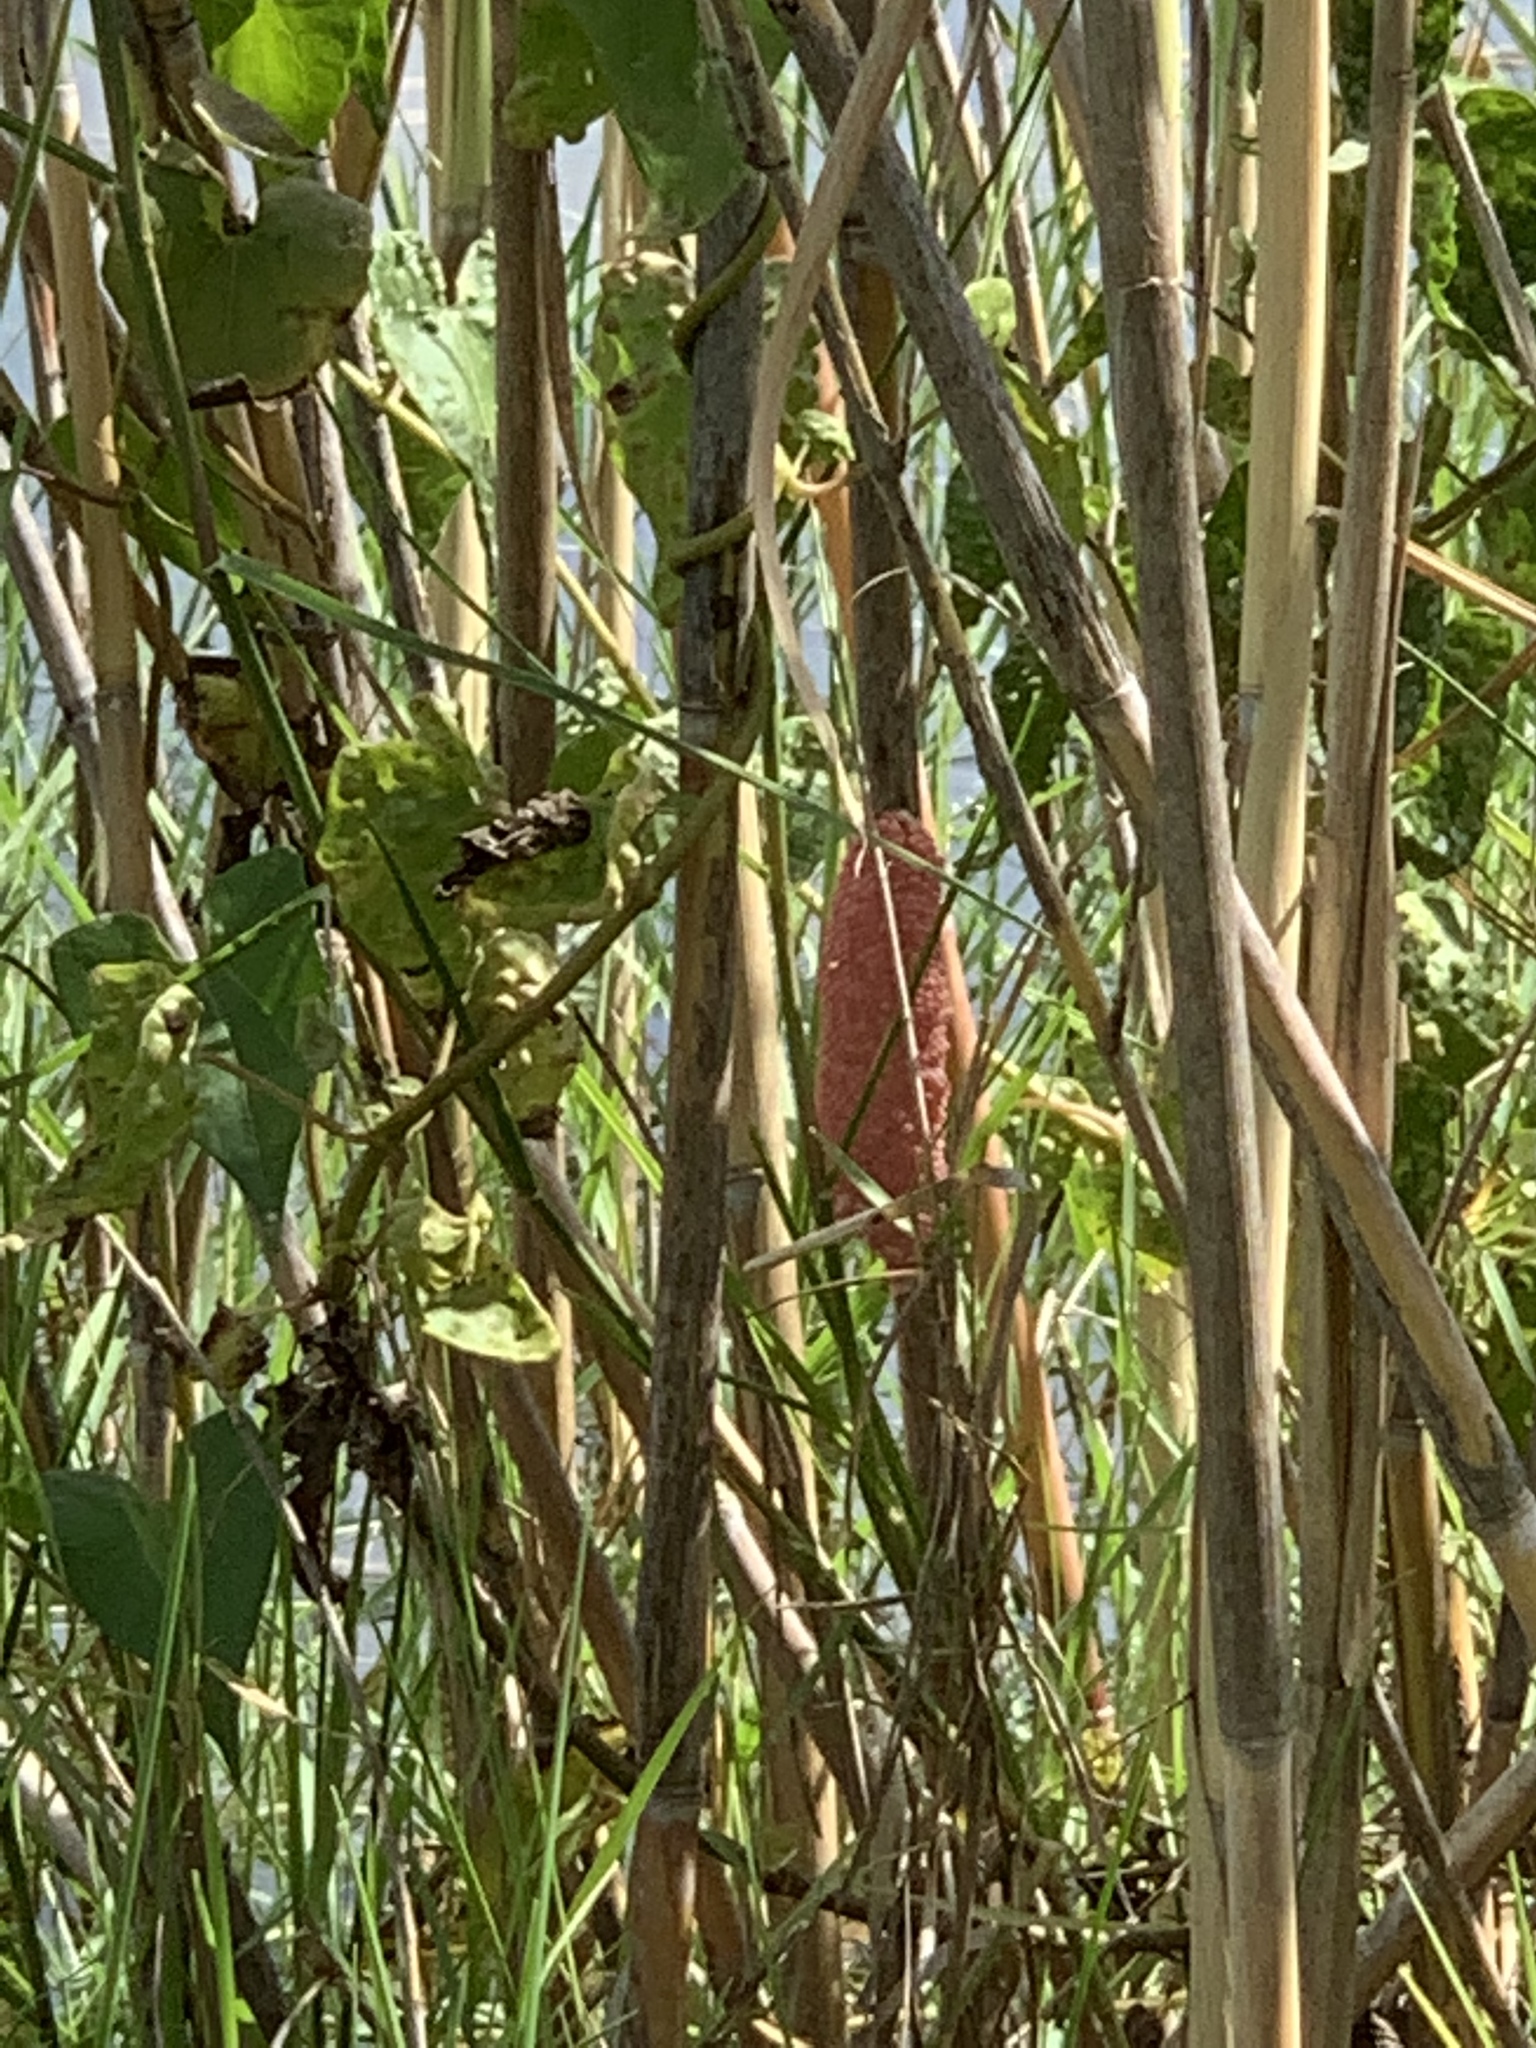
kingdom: Animalia
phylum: Mollusca
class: Gastropoda
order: Architaenioglossa
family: Ampullariidae
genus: Pomacea
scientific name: Pomacea maculata
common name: Giant applesnail
